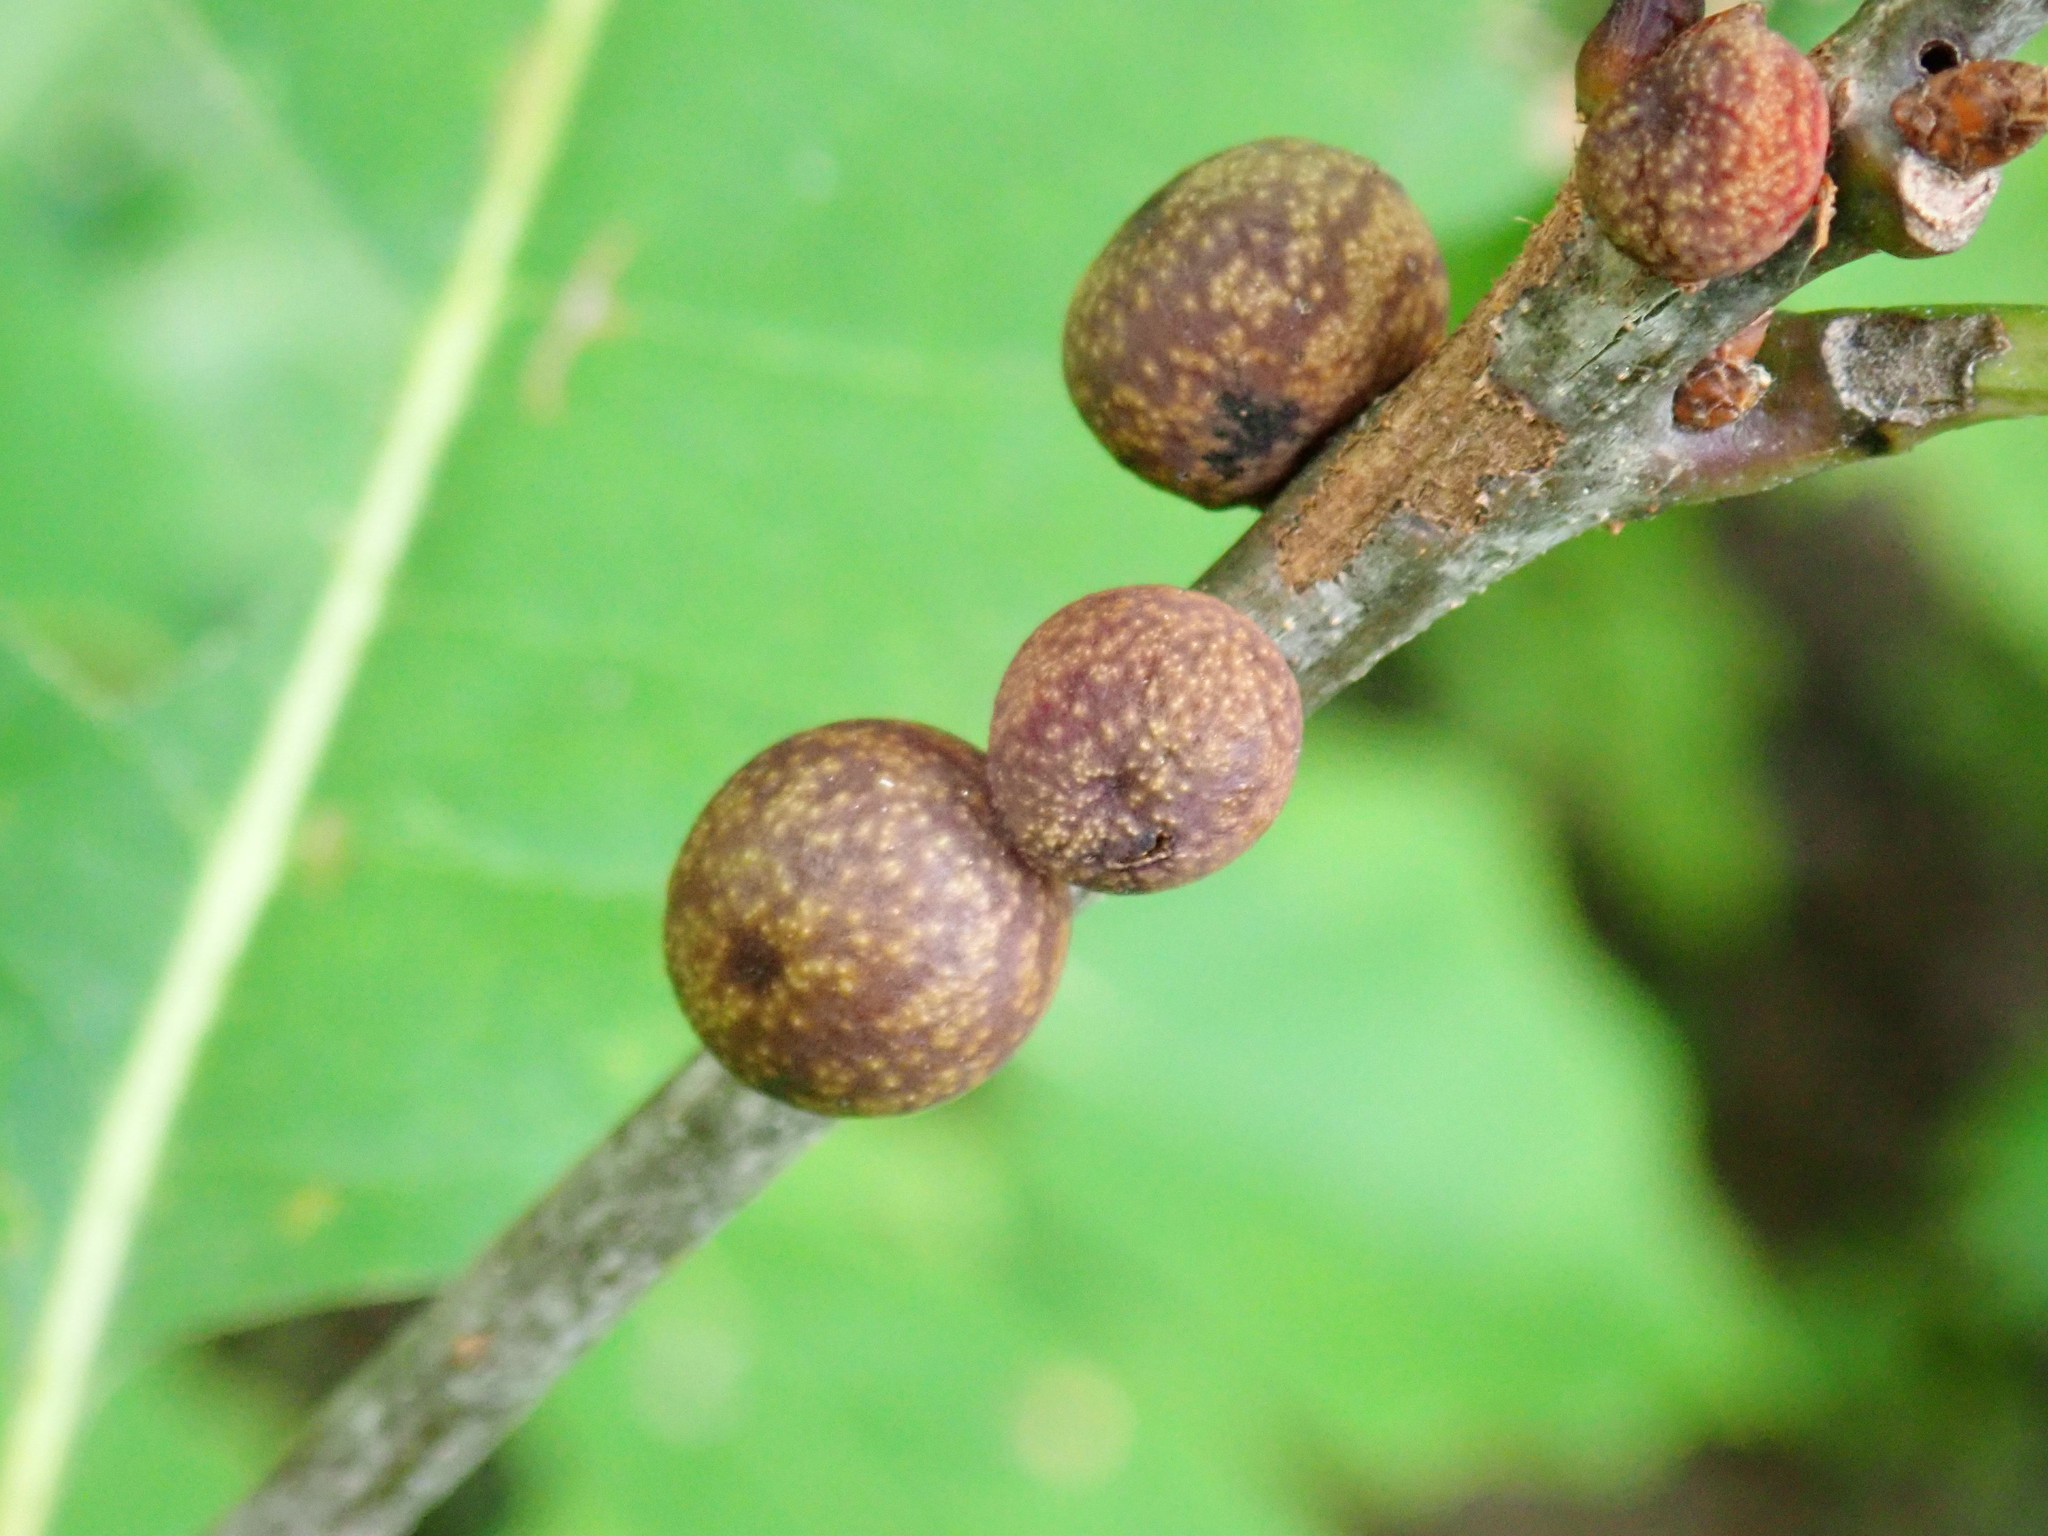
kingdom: Animalia
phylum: Arthropoda
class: Insecta
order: Hymenoptera
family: Cynipidae
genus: Kokkocynips
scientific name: Kokkocynips imbricariae
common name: Banded bullet gall wasp
